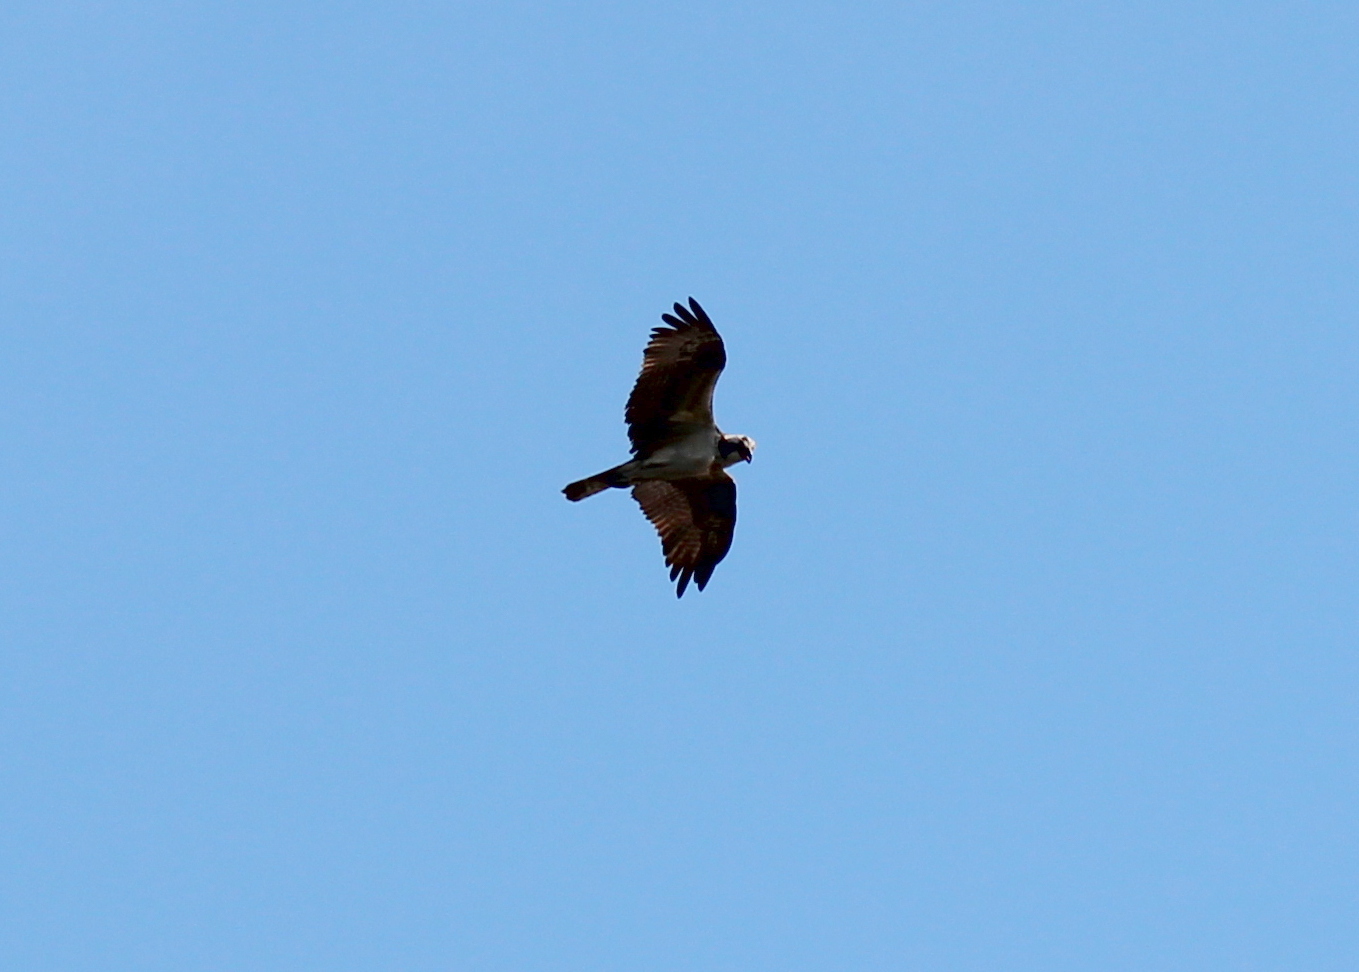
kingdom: Animalia
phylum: Chordata
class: Aves
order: Accipitriformes
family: Pandionidae
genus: Pandion
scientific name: Pandion haliaetus
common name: Osprey
